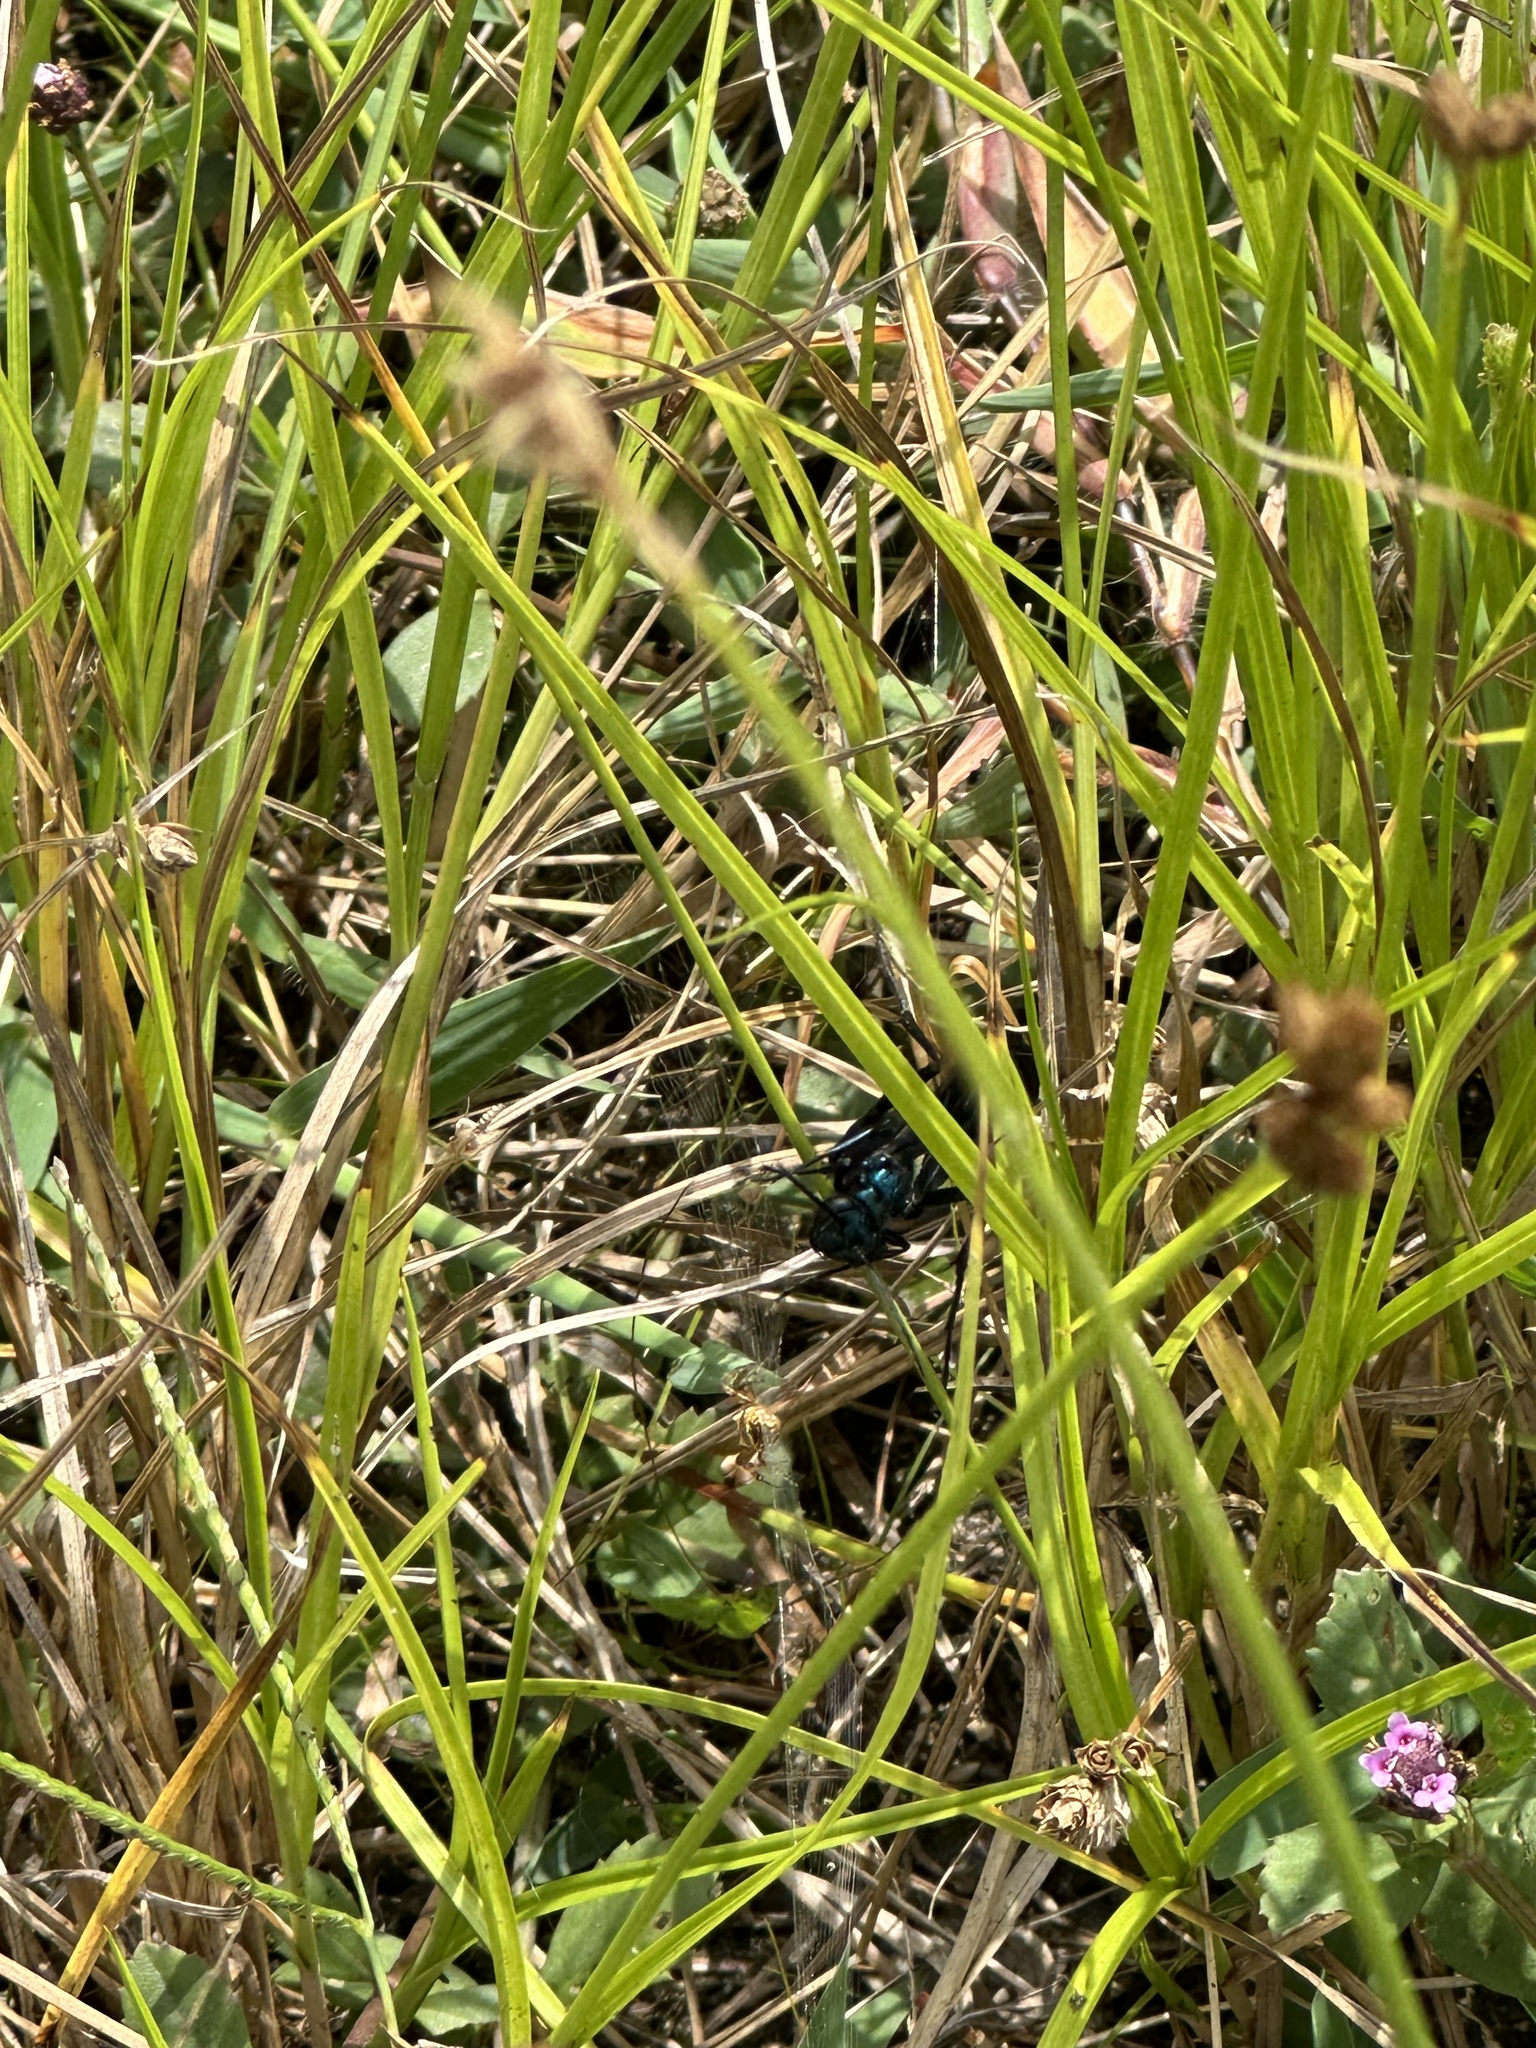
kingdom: Animalia
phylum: Arthropoda
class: Insecta
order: Hymenoptera
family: Sphecidae
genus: Chalybion
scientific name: Chalybion californicum
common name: Mud dauber
